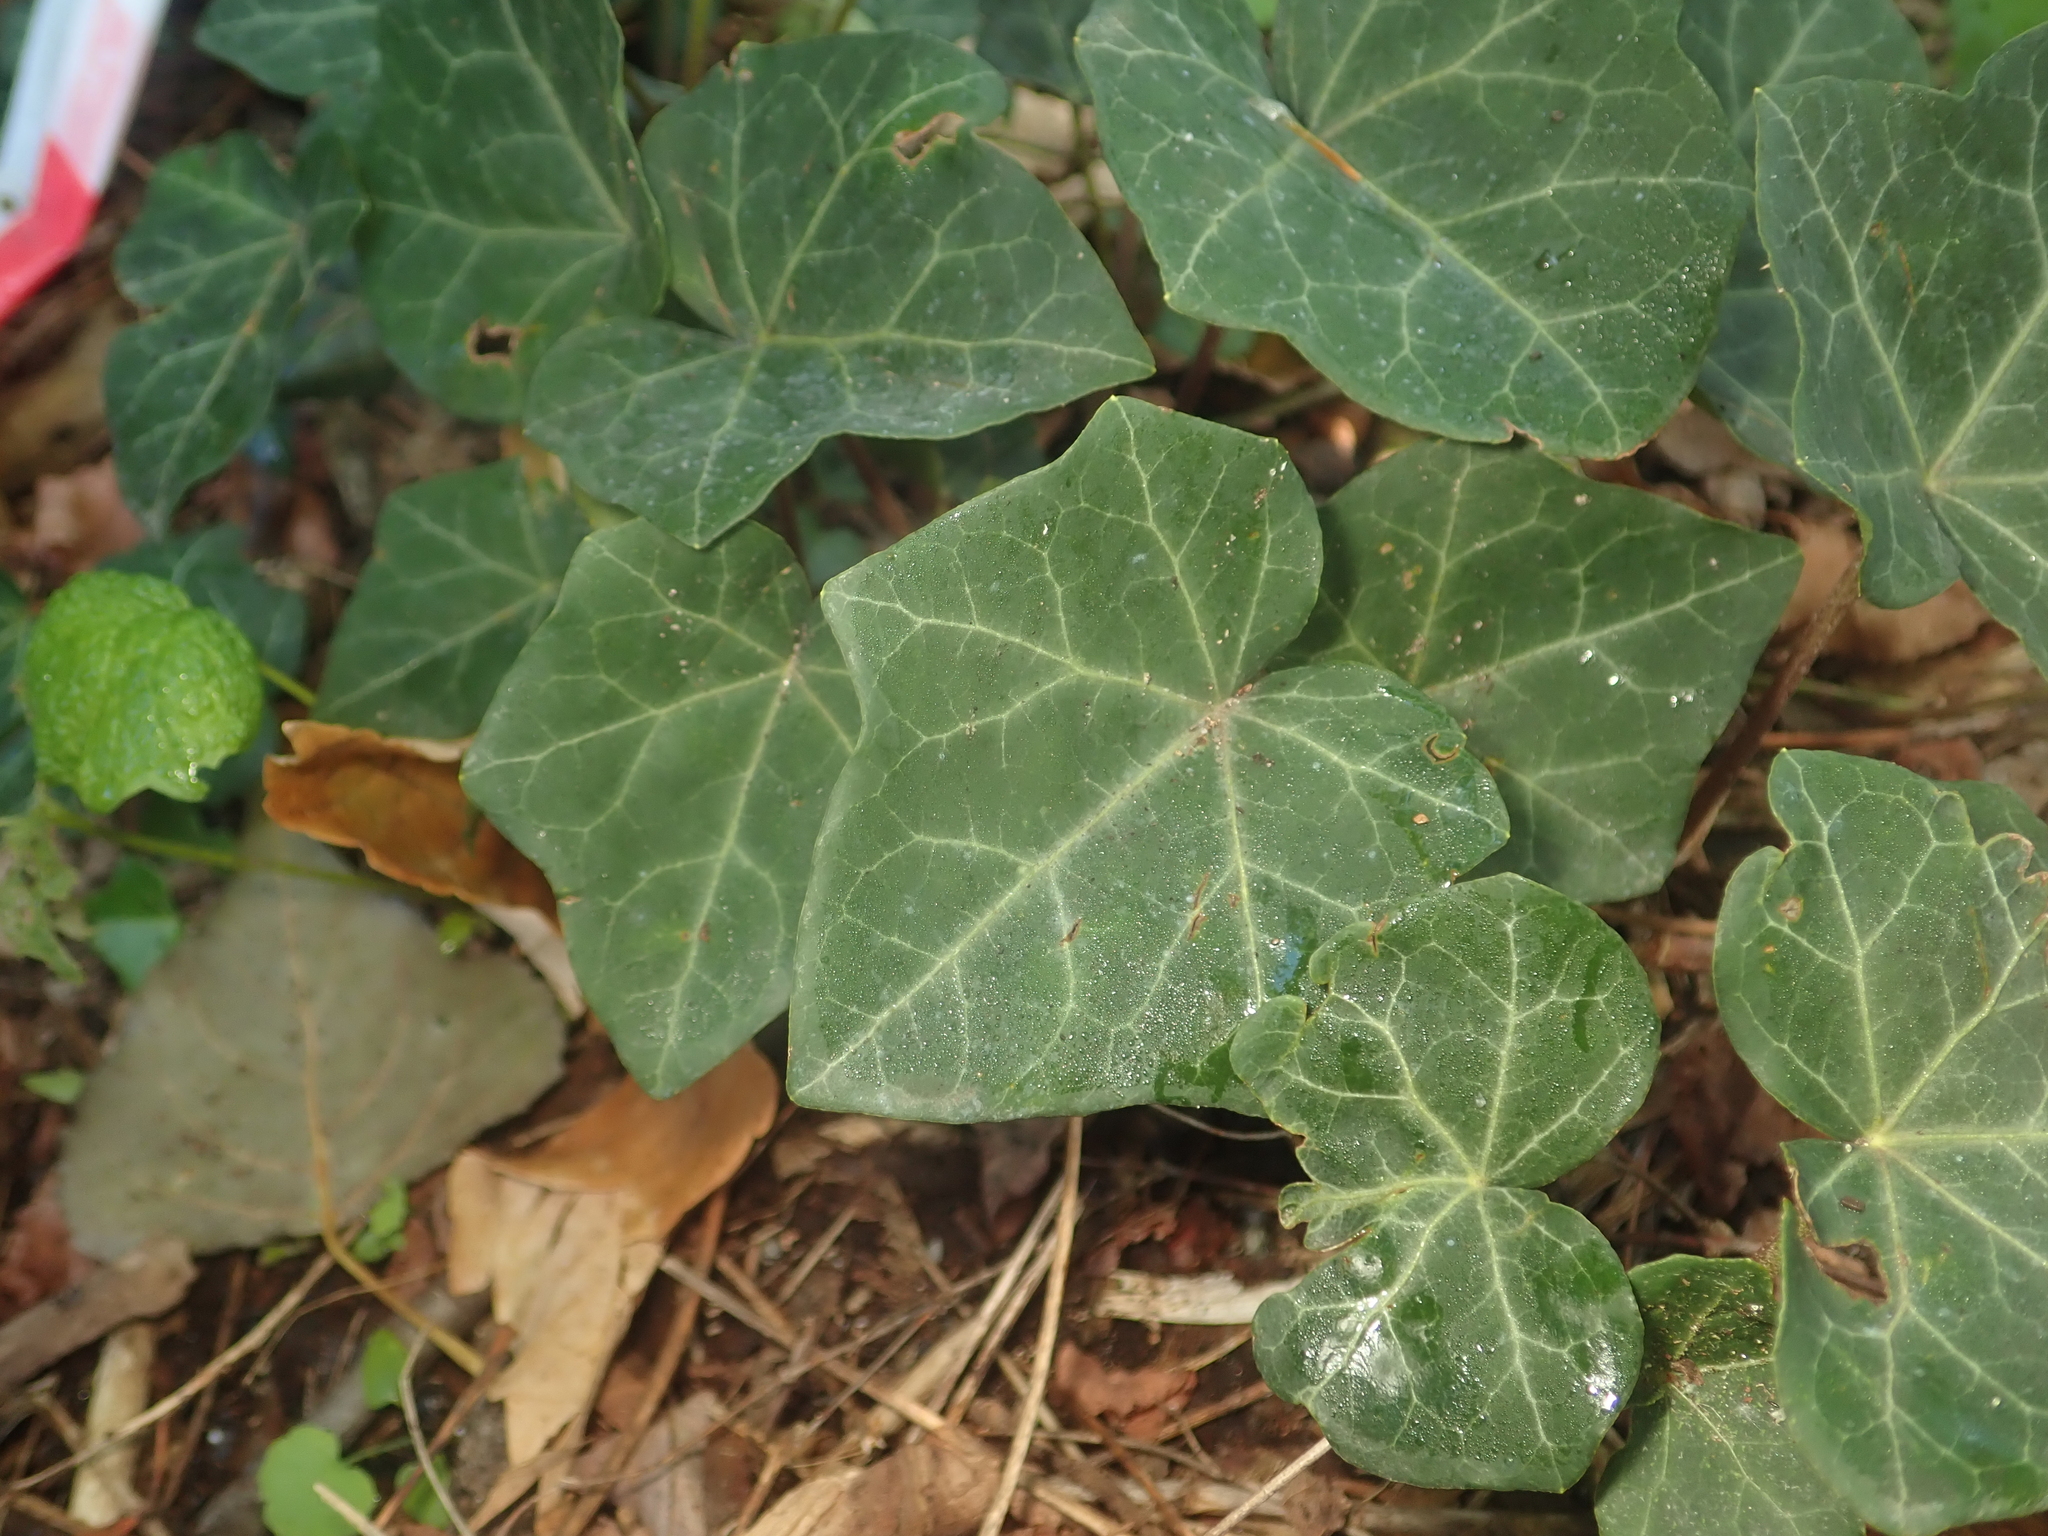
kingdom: Plantae
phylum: Tracheophyta
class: Magnoliopsida
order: Apiales
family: Araliaceae
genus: Hedera
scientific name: Hedera helix
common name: Ivy
